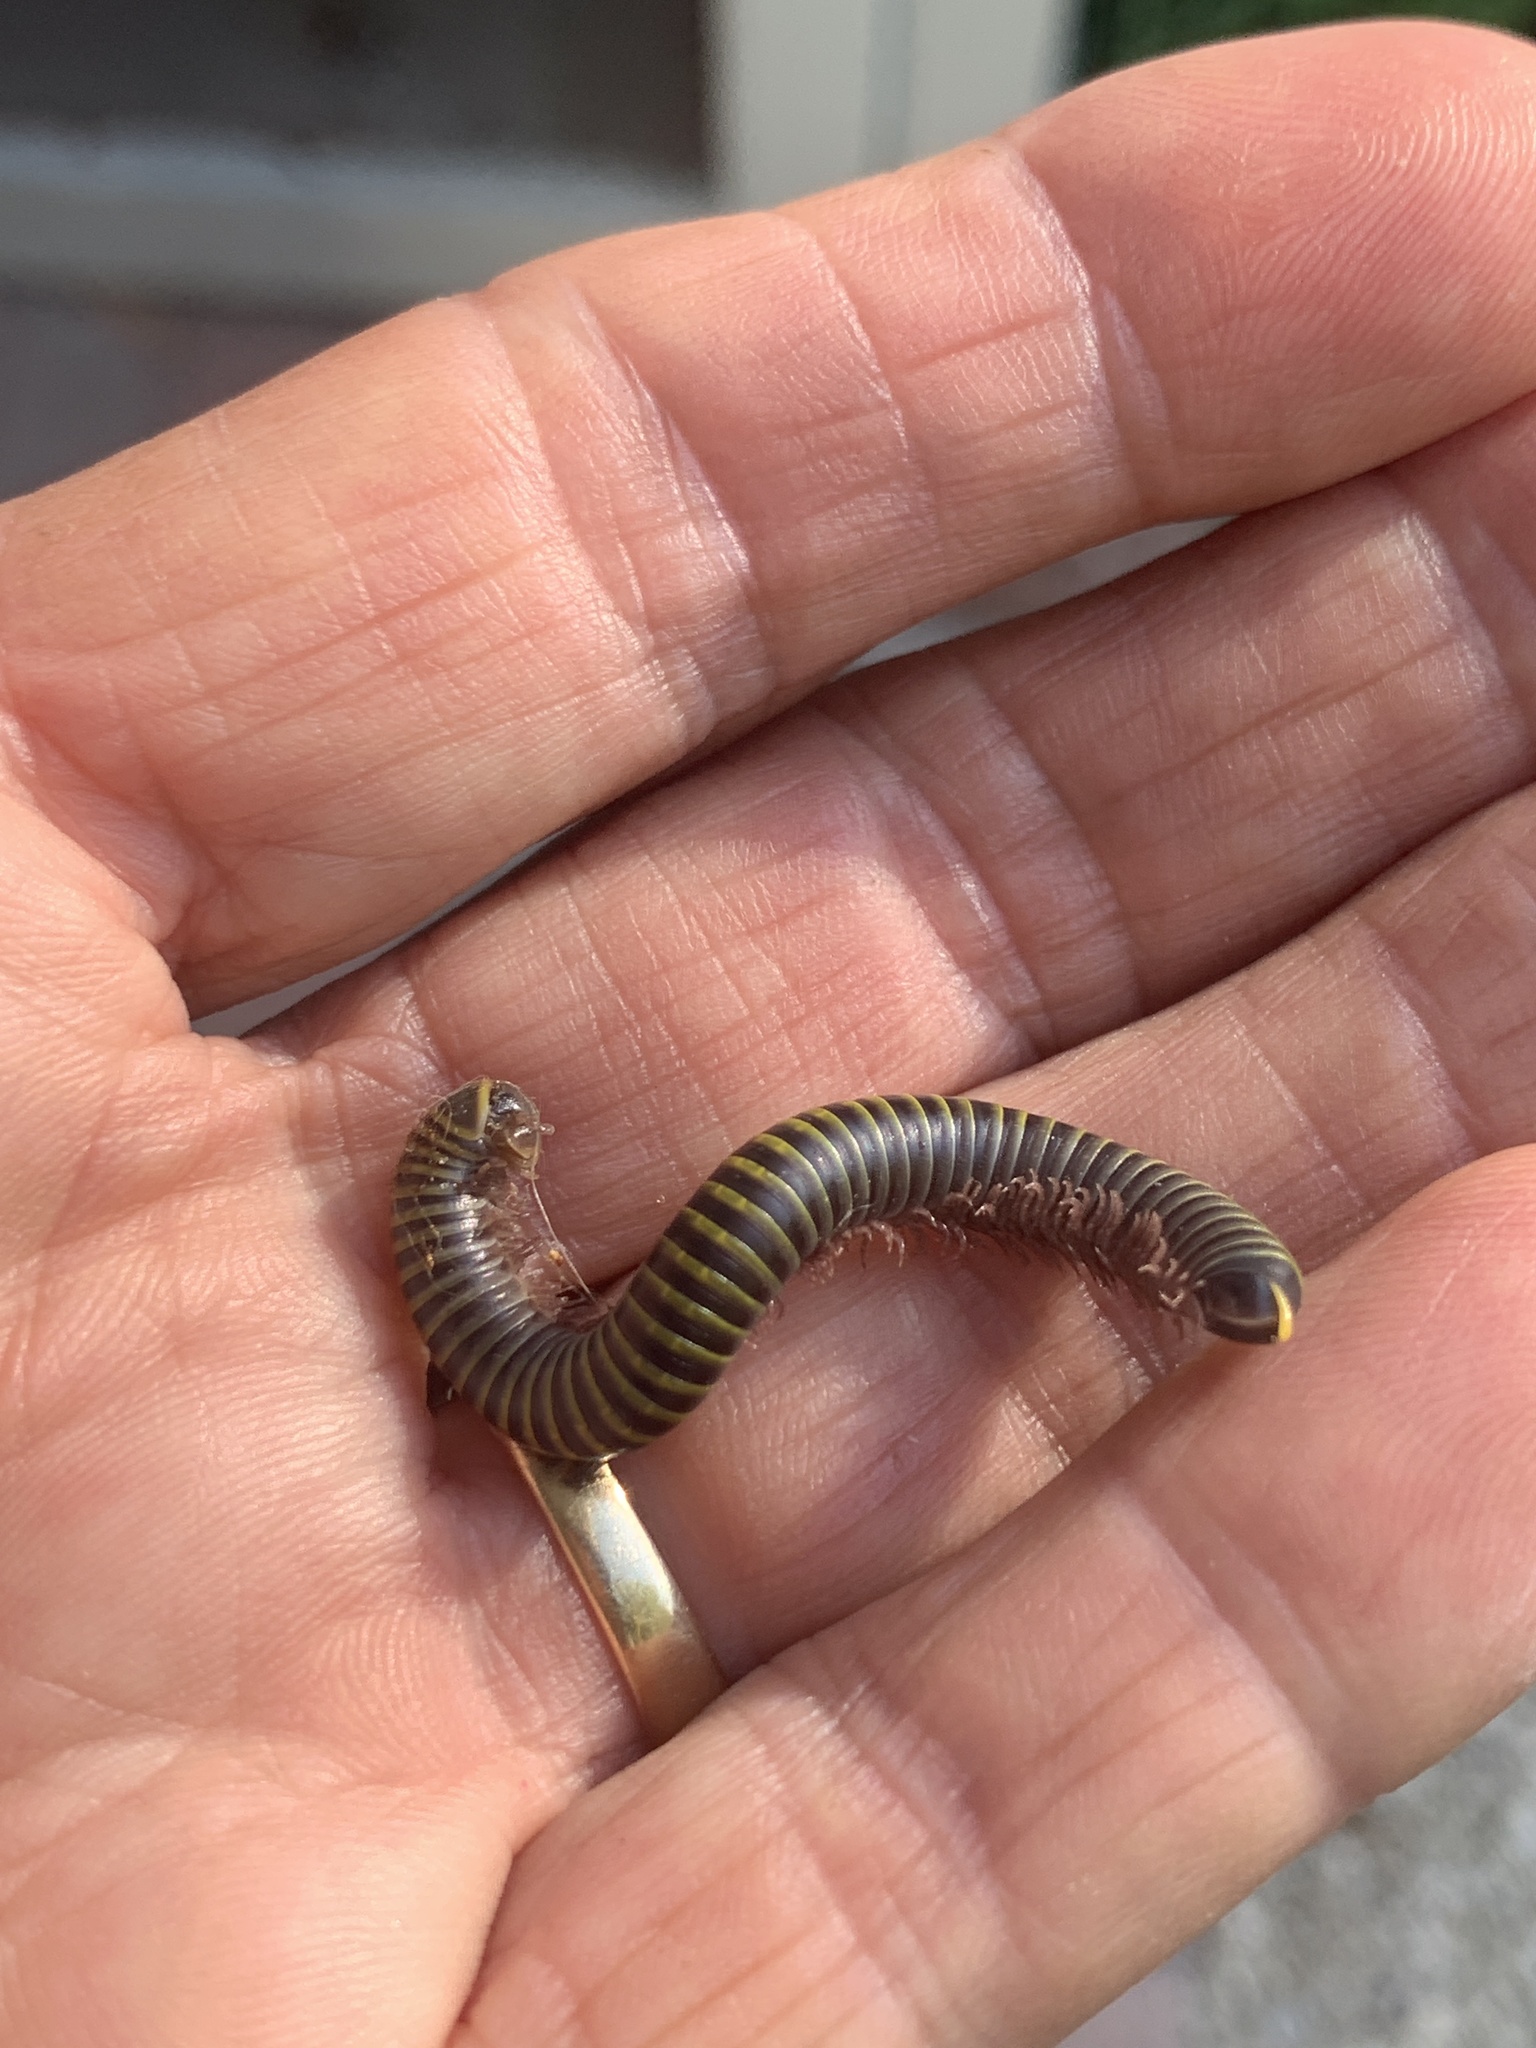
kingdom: Animalia
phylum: Arthropoda
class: Diplopoda
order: Spirobolida
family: Rhinocricidae
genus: Anadenobolus
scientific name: Anadenobolus monilicornis
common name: Caribbean millipede
